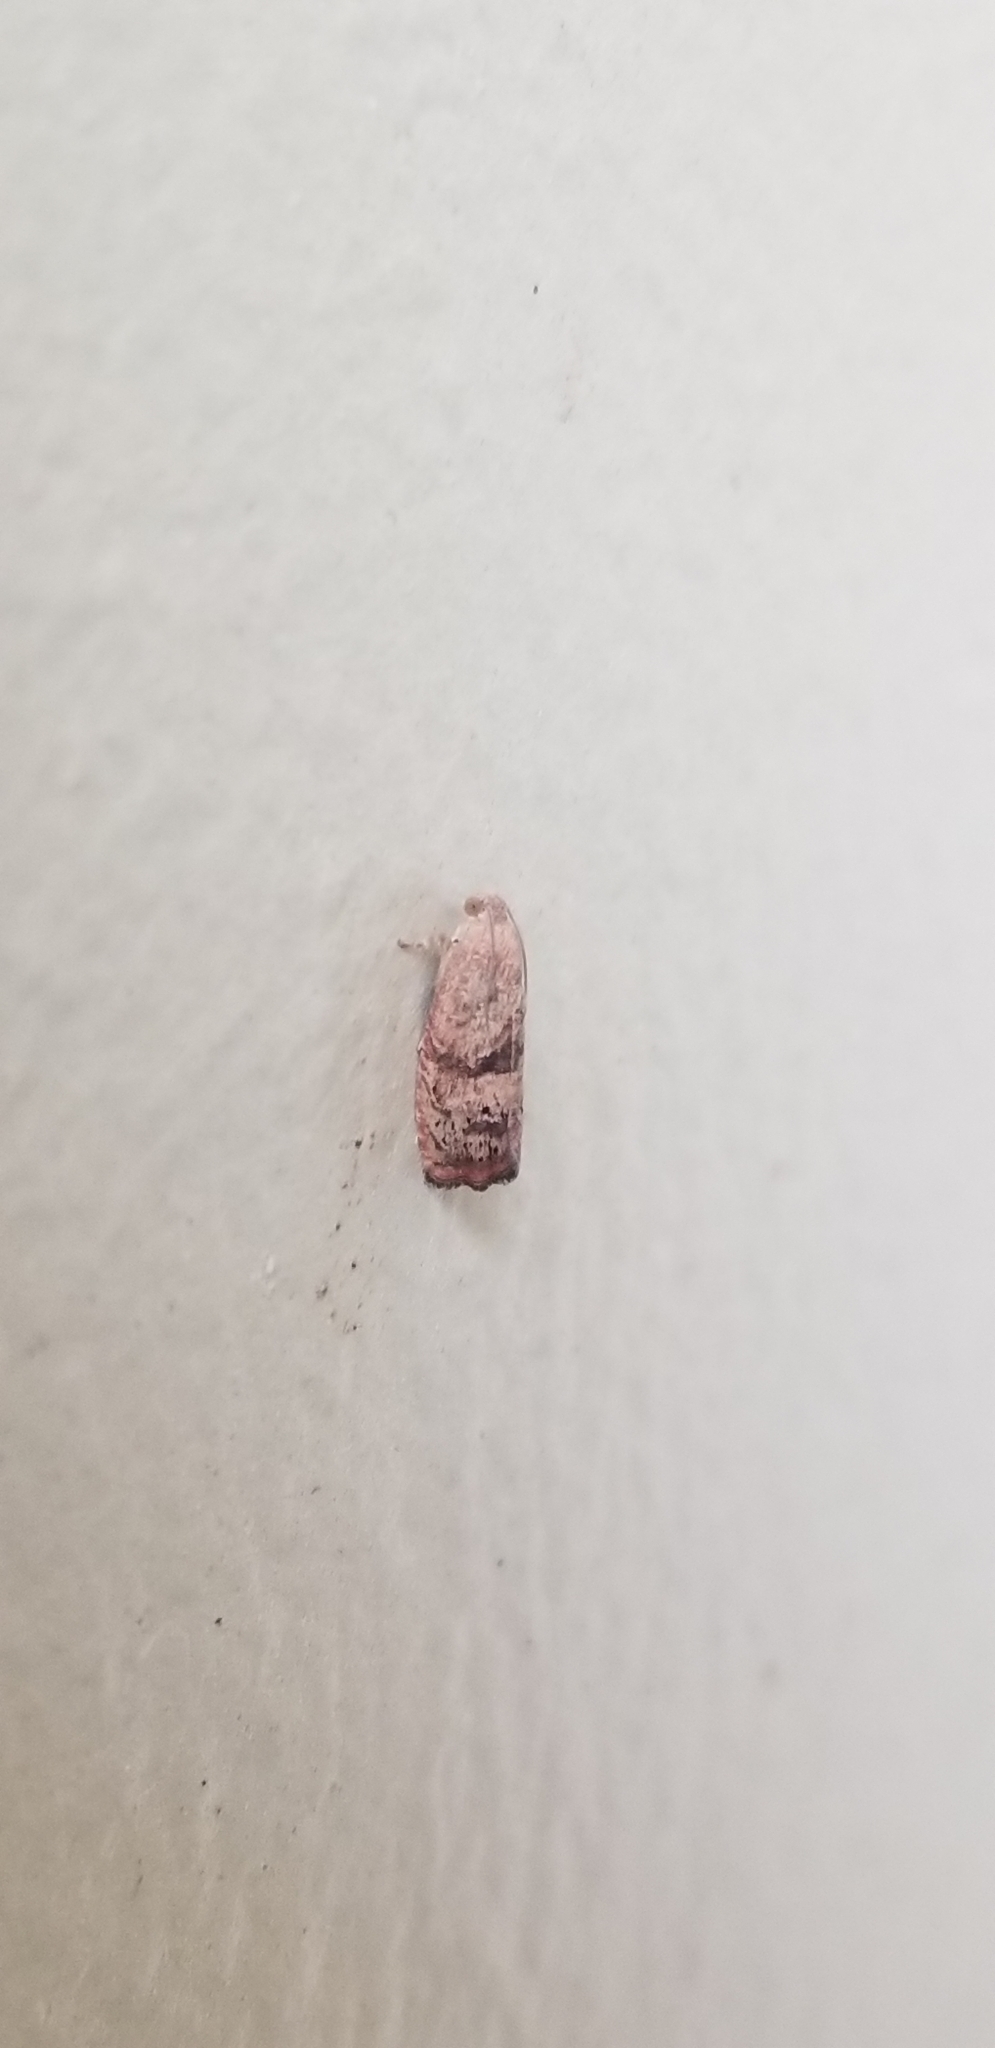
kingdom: Animalia
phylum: Arthropoda
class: Insecta
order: Lepidoptera
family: Tortricidae
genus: Cydia
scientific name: Cydia latiferreana
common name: Filbertworm moth
